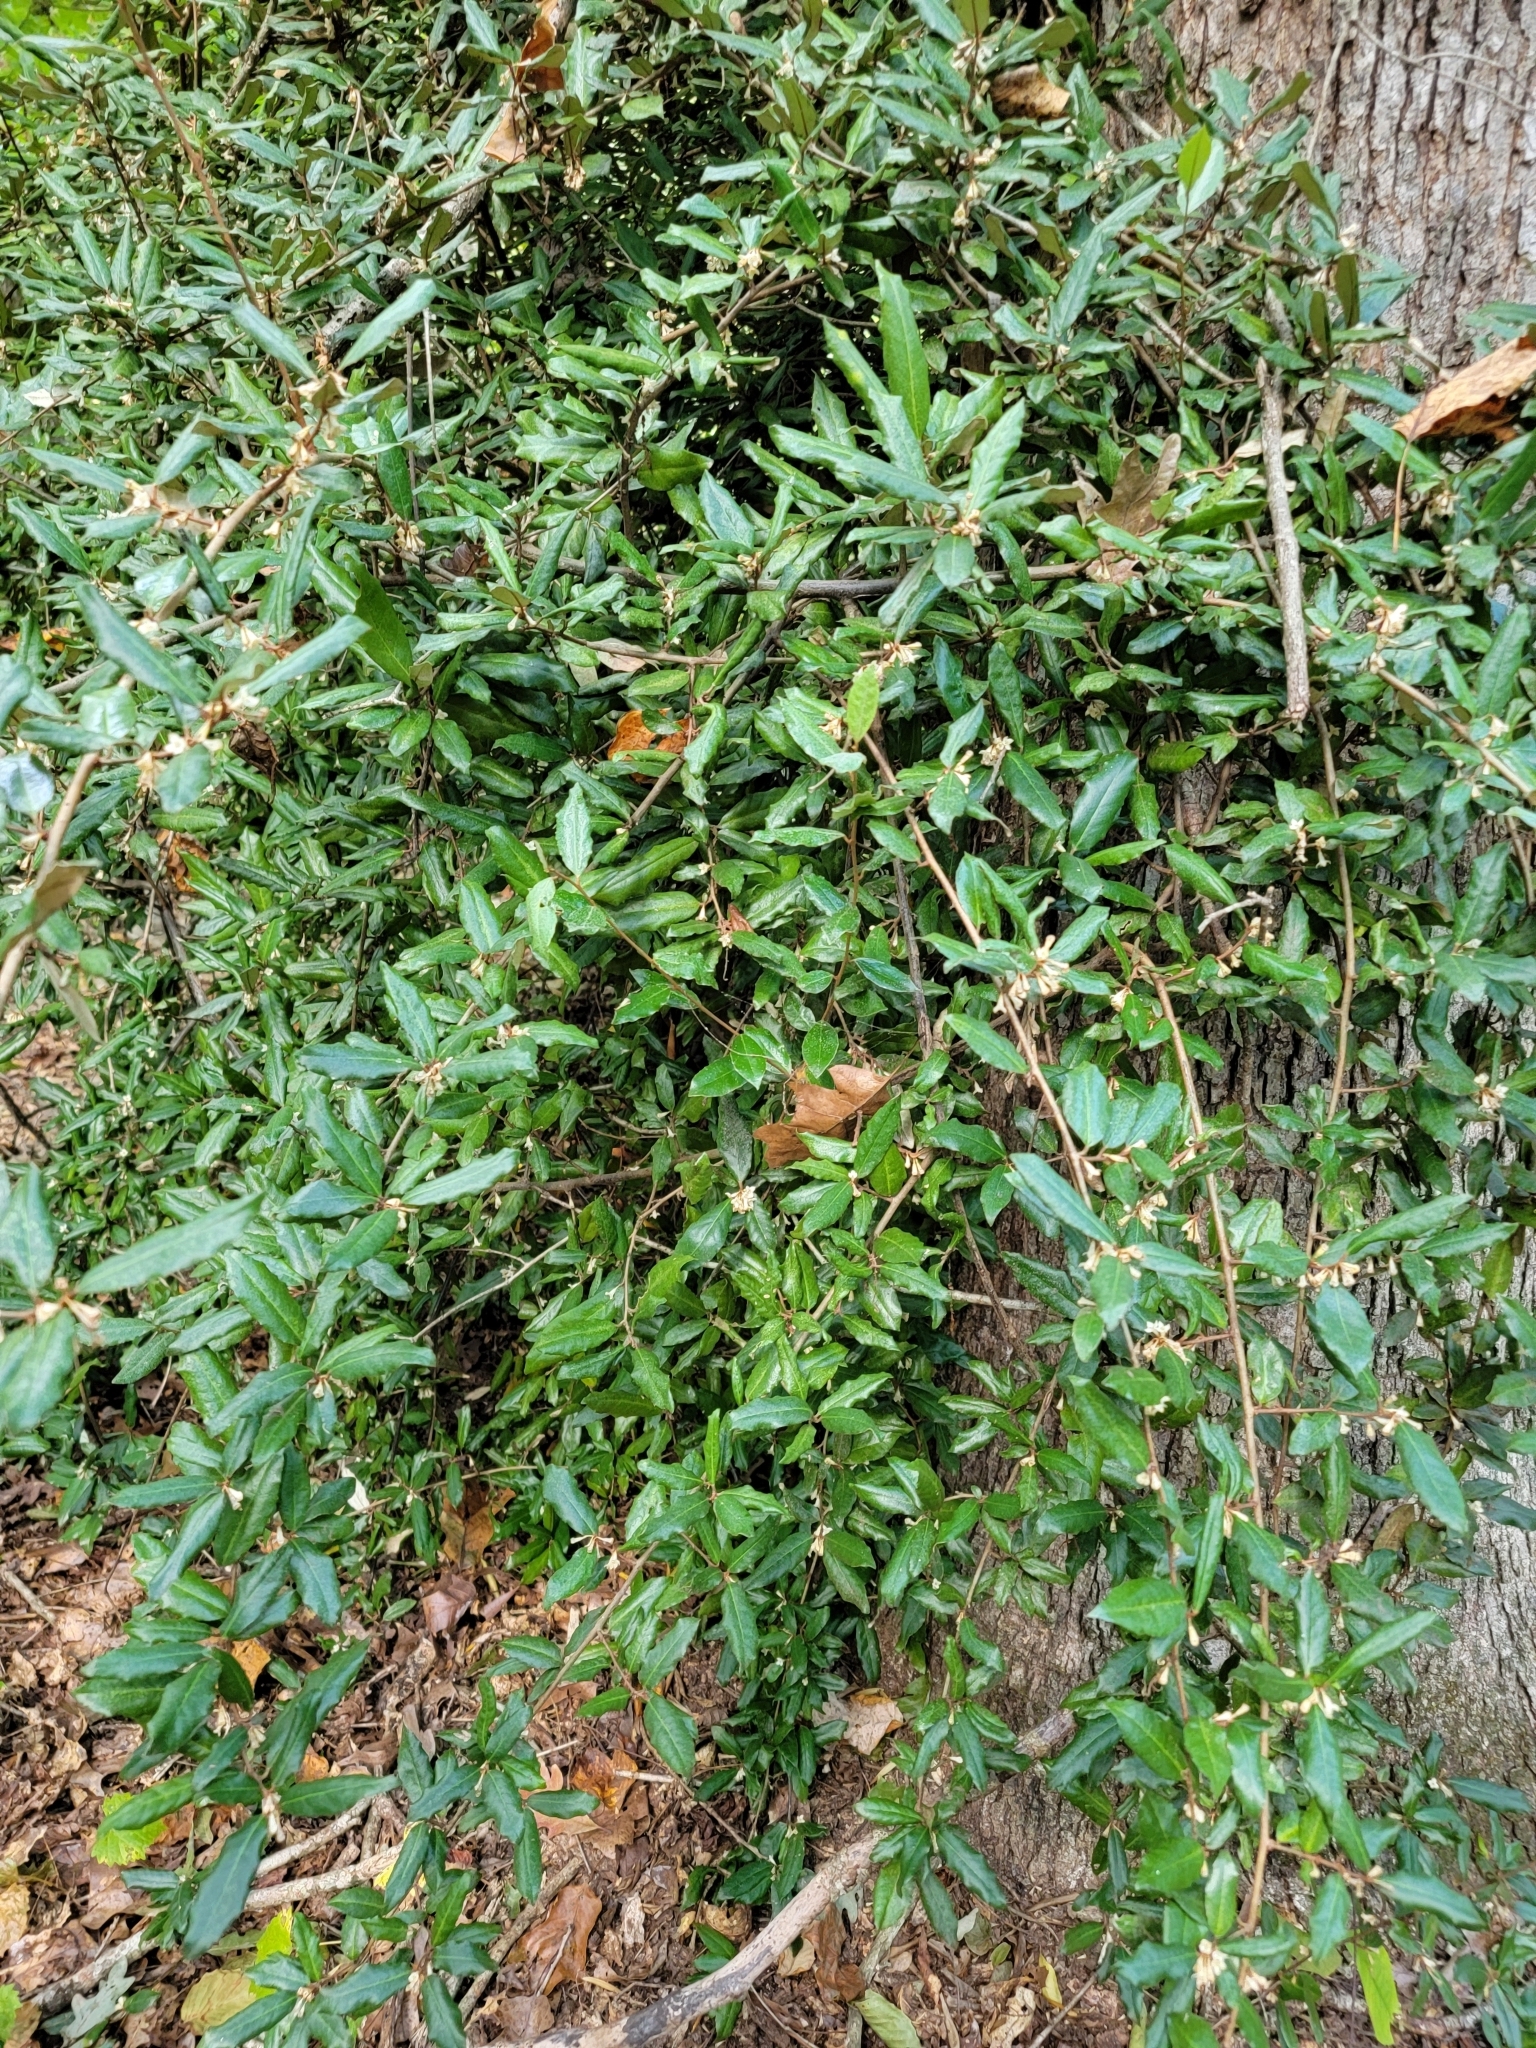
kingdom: Plantae
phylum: Tracheophyta
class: Magnoliopsida
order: Rosales
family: Elaeagnaceae
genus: Elaeagnus
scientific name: Elaeagnus pungens
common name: Spiny oleaster
